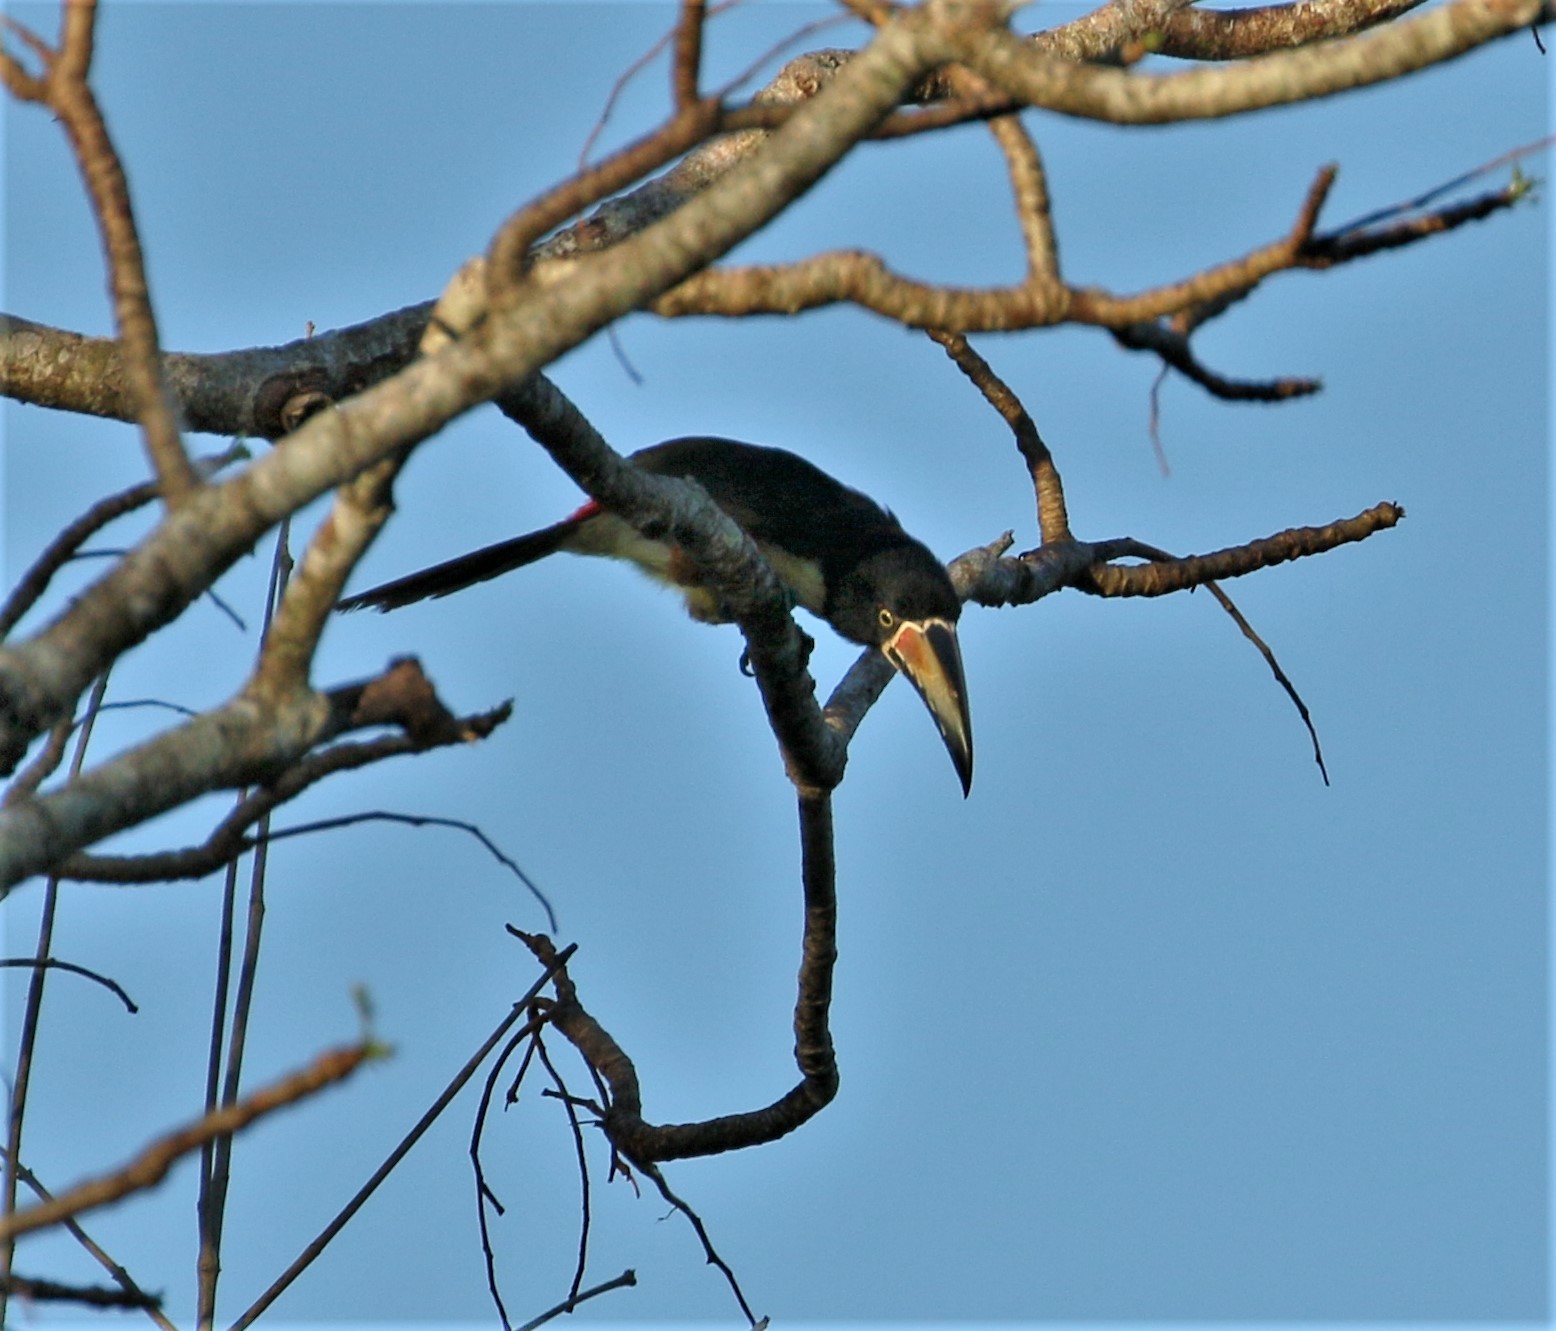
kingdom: Animalia
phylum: Chordata
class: Aves
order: Piciformes
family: Ramphastidae
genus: Pteroglossus
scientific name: Pteroglossus torquatus
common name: Collared aracari
